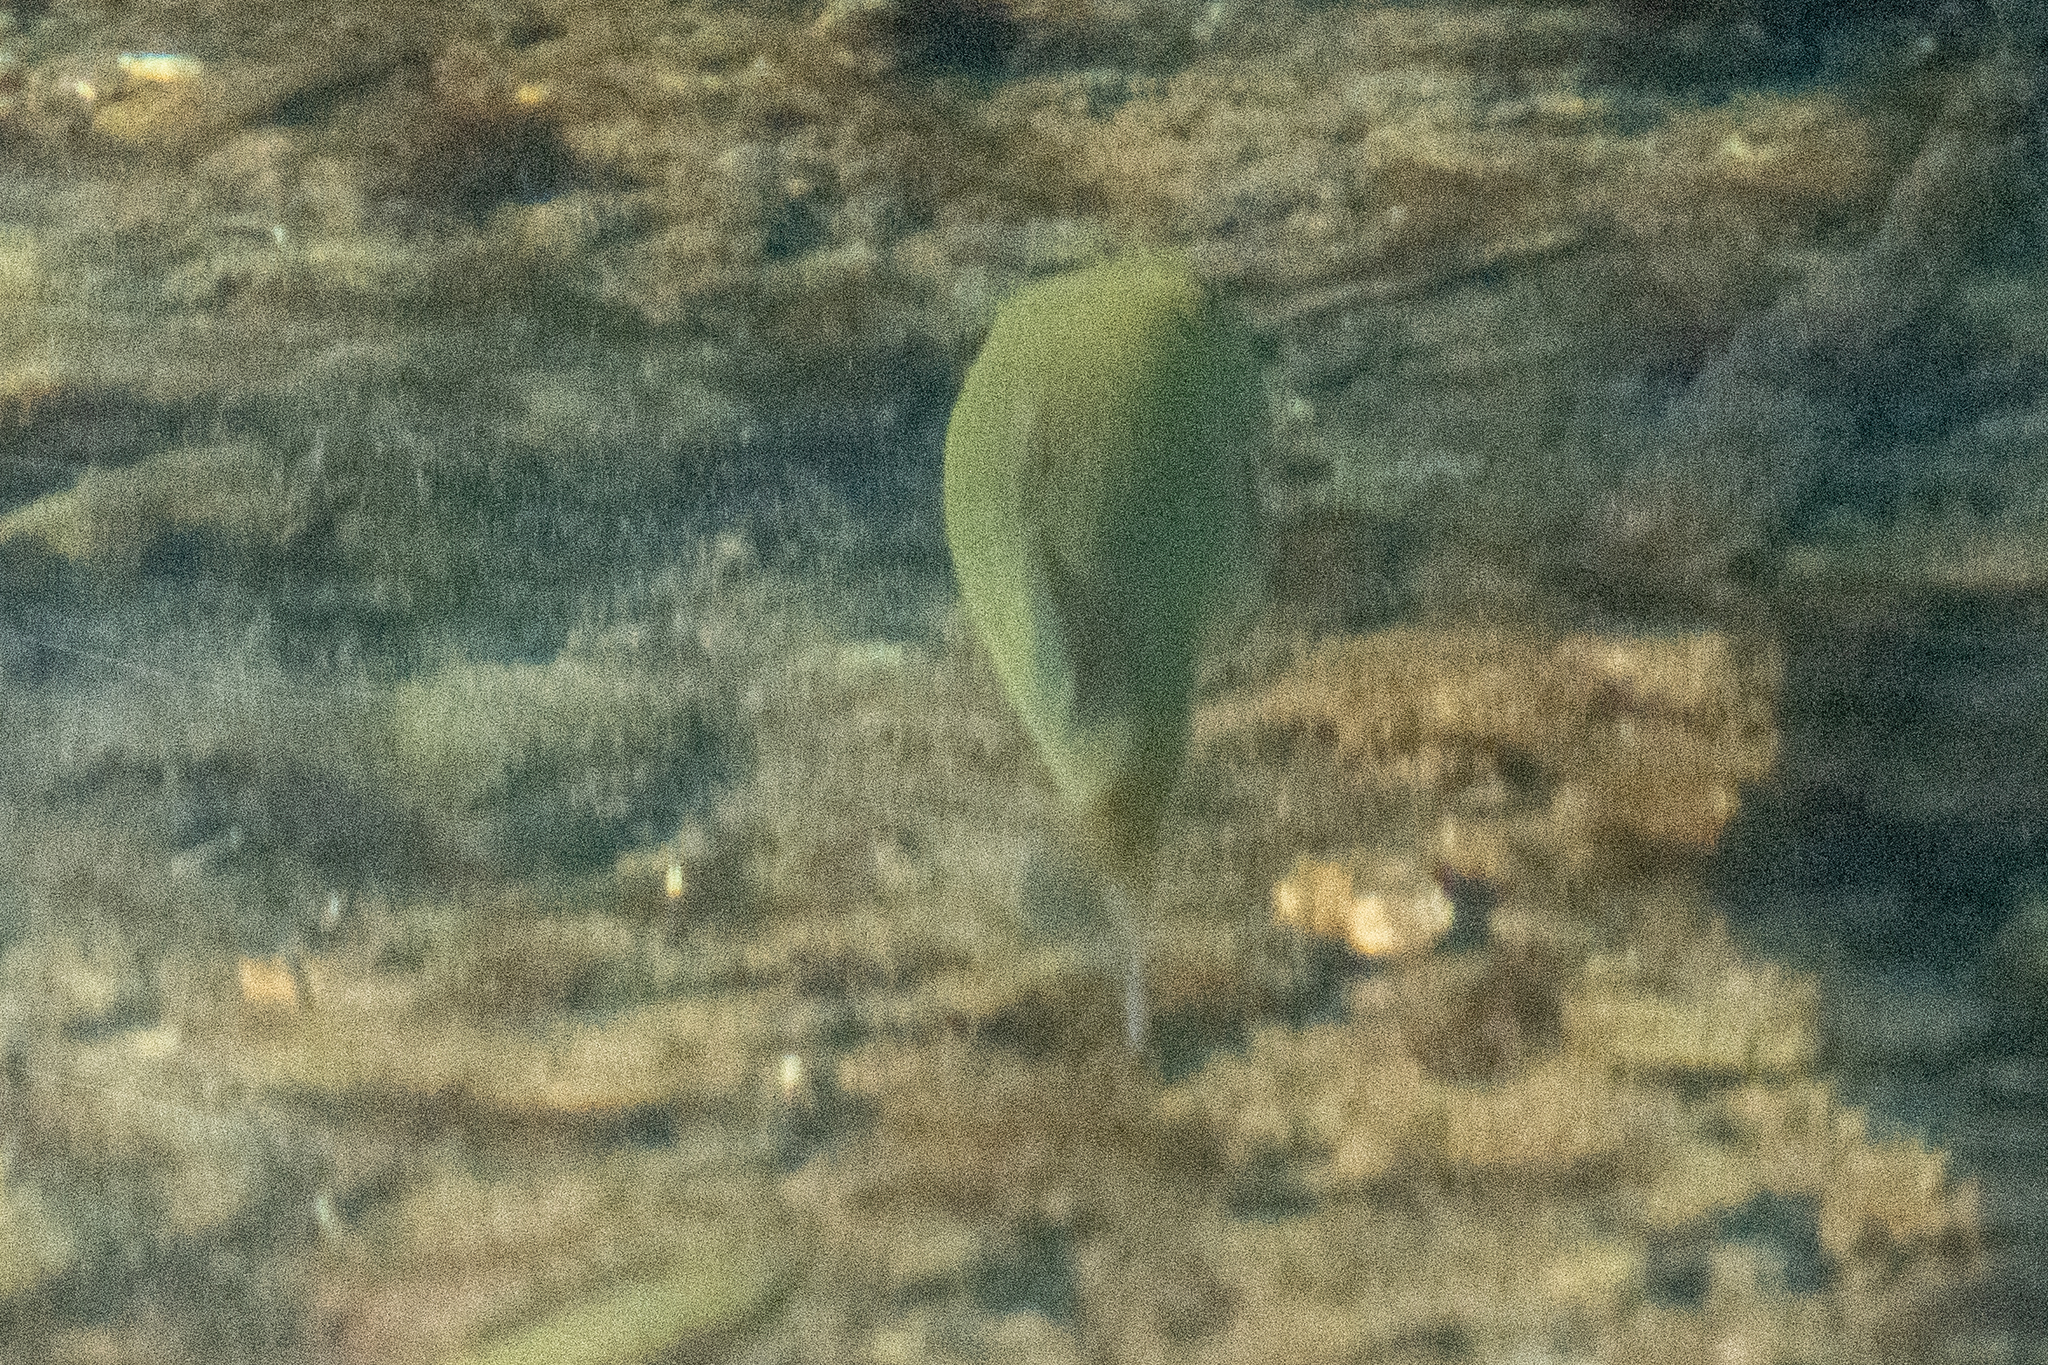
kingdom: Animalia
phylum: Chordata
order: Perciformes
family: Centrarchidae
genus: Micropterus
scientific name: Micropterus dolomieu
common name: Smallmouth bass
